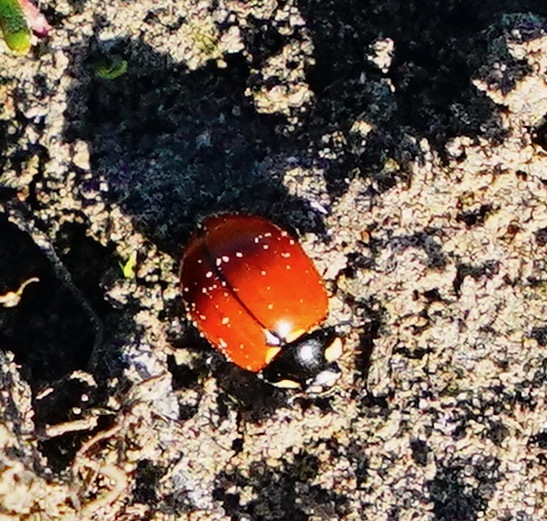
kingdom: Animalia
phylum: Arthropoda
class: Insecta
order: Coleoptera
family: Coccinellidae
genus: Coccinella
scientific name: Coccinella californica
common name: Lady beetle
